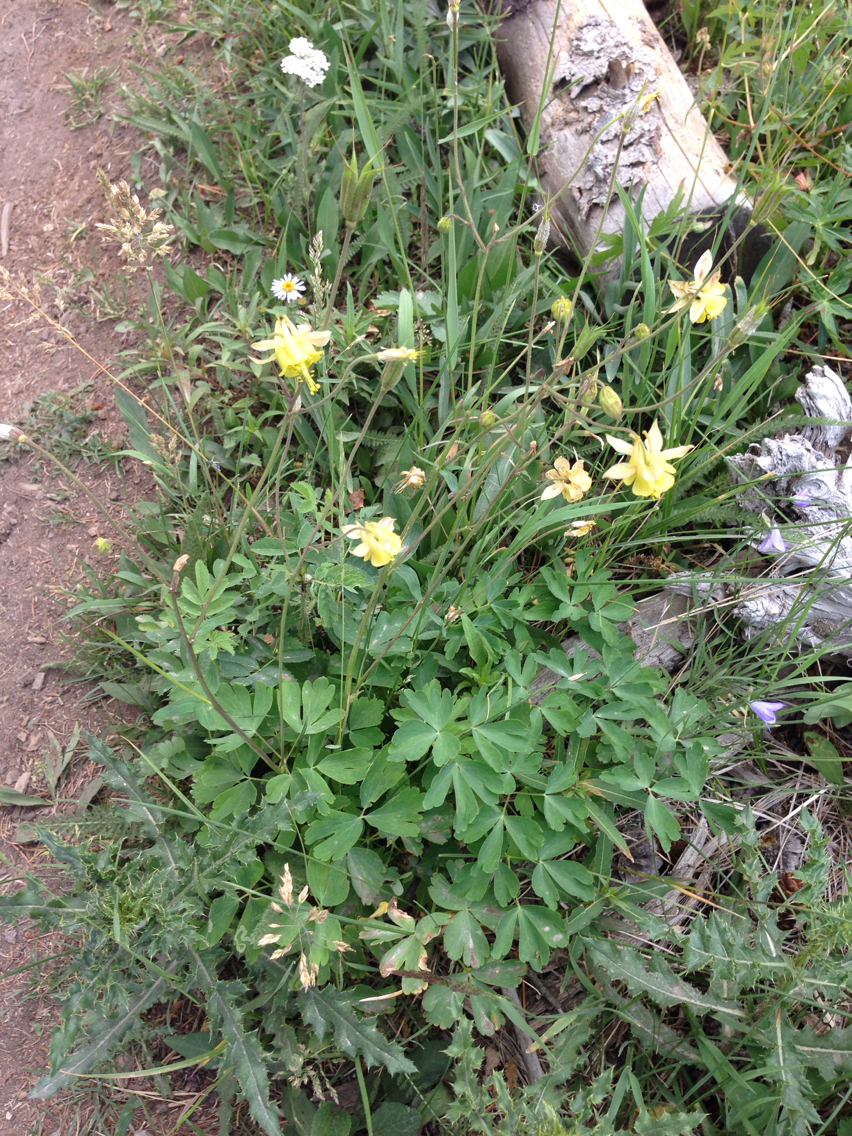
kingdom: Plantae
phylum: Tracheophyta
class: Magnoliopsida
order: Ranunculales
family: Ranunculaceae
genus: Aquilegia
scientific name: Aquilegia flavescens
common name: Yellow columbine
